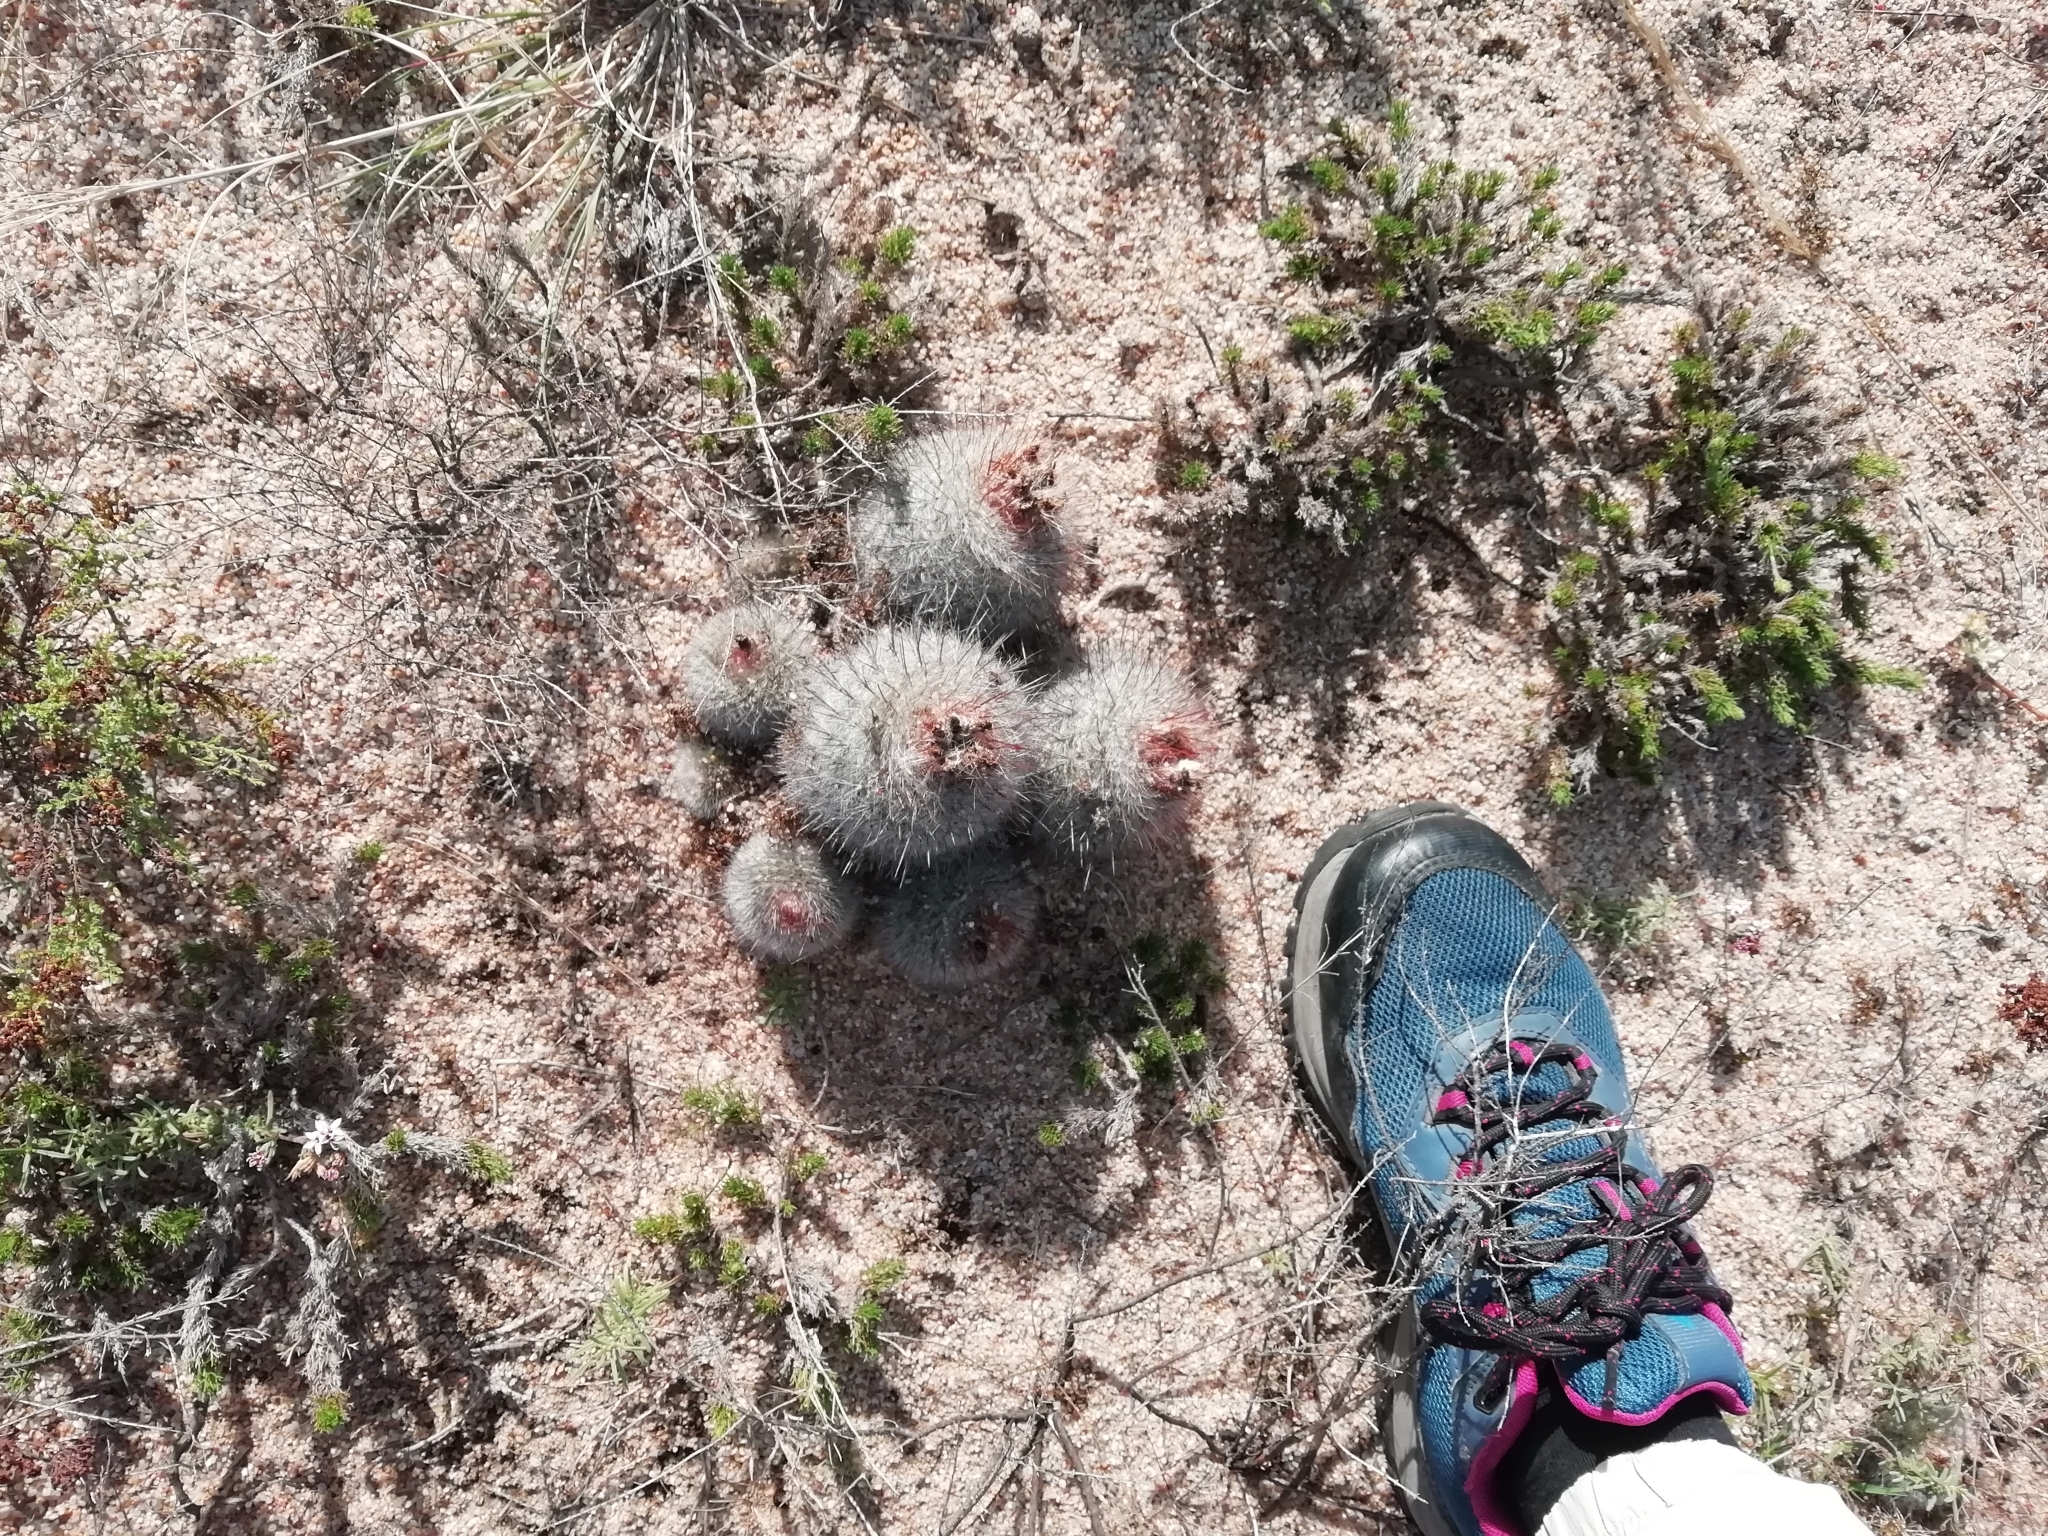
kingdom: Plantae
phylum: Tracheophyta
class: Magnoliopsida
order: Caryophyllales
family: Cactaceae
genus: Parodia
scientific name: Parodia scopa
